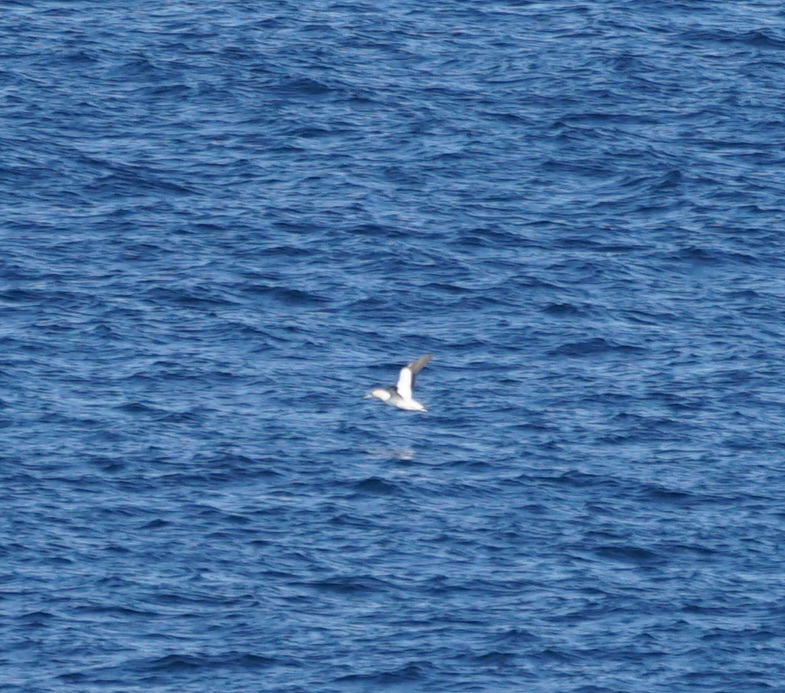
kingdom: Animalia
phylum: Chordata
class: Aves
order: Suliformes
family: Sulidae
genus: Morus
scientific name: Morus serrator
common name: Australasian gannet
